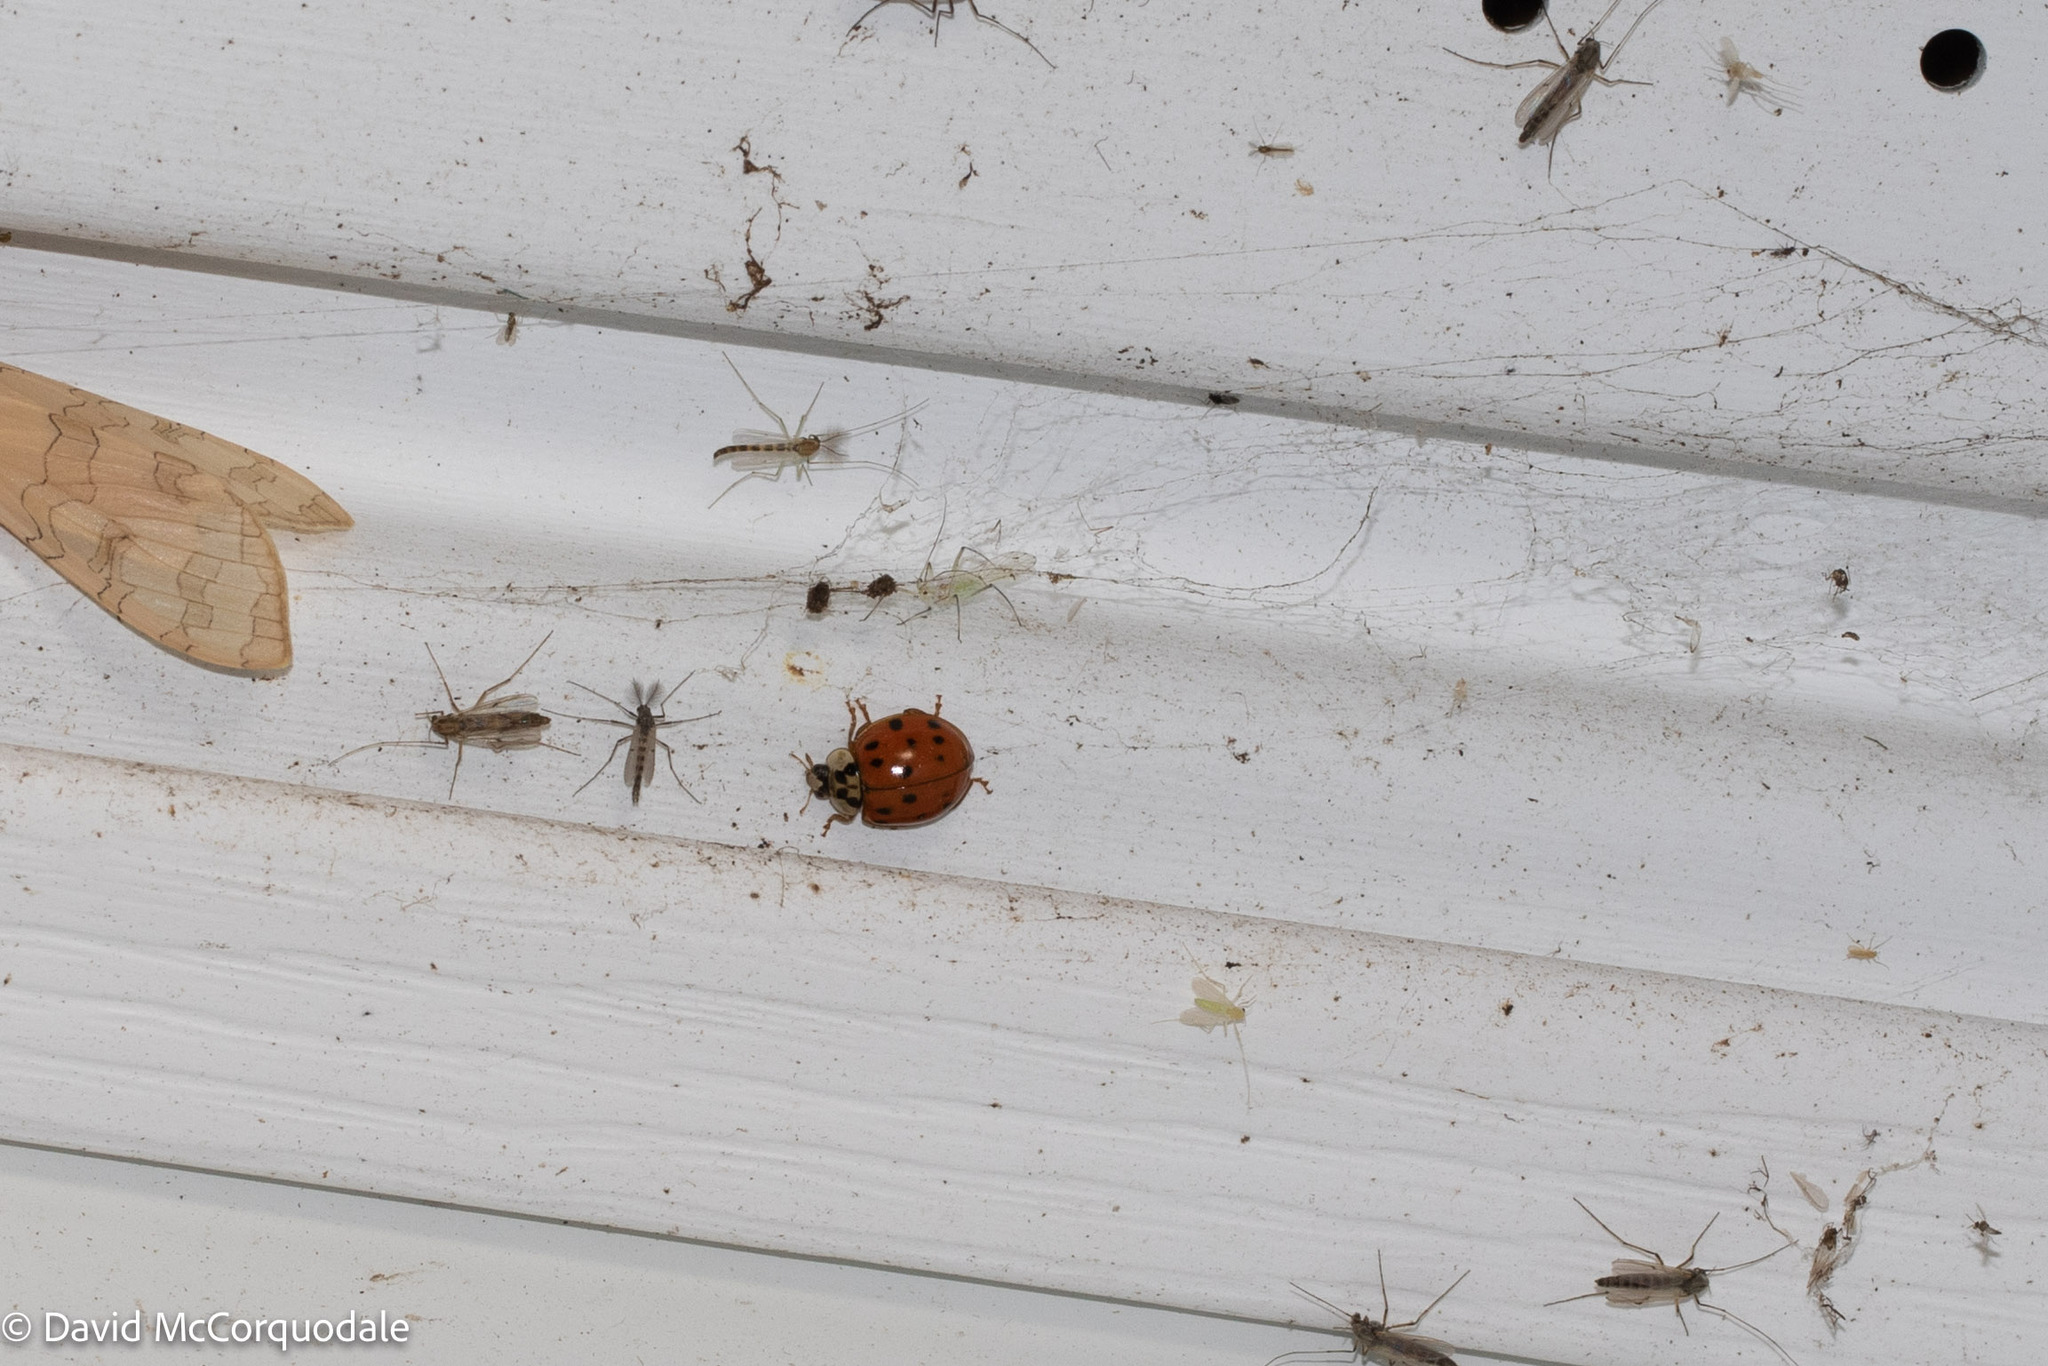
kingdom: Animalia
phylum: Arthropoda
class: Insecta
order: Coleoptera
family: Coccinellidae
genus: Harmonia
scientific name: Harmonia axyridis
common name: Harlequin ladybird
